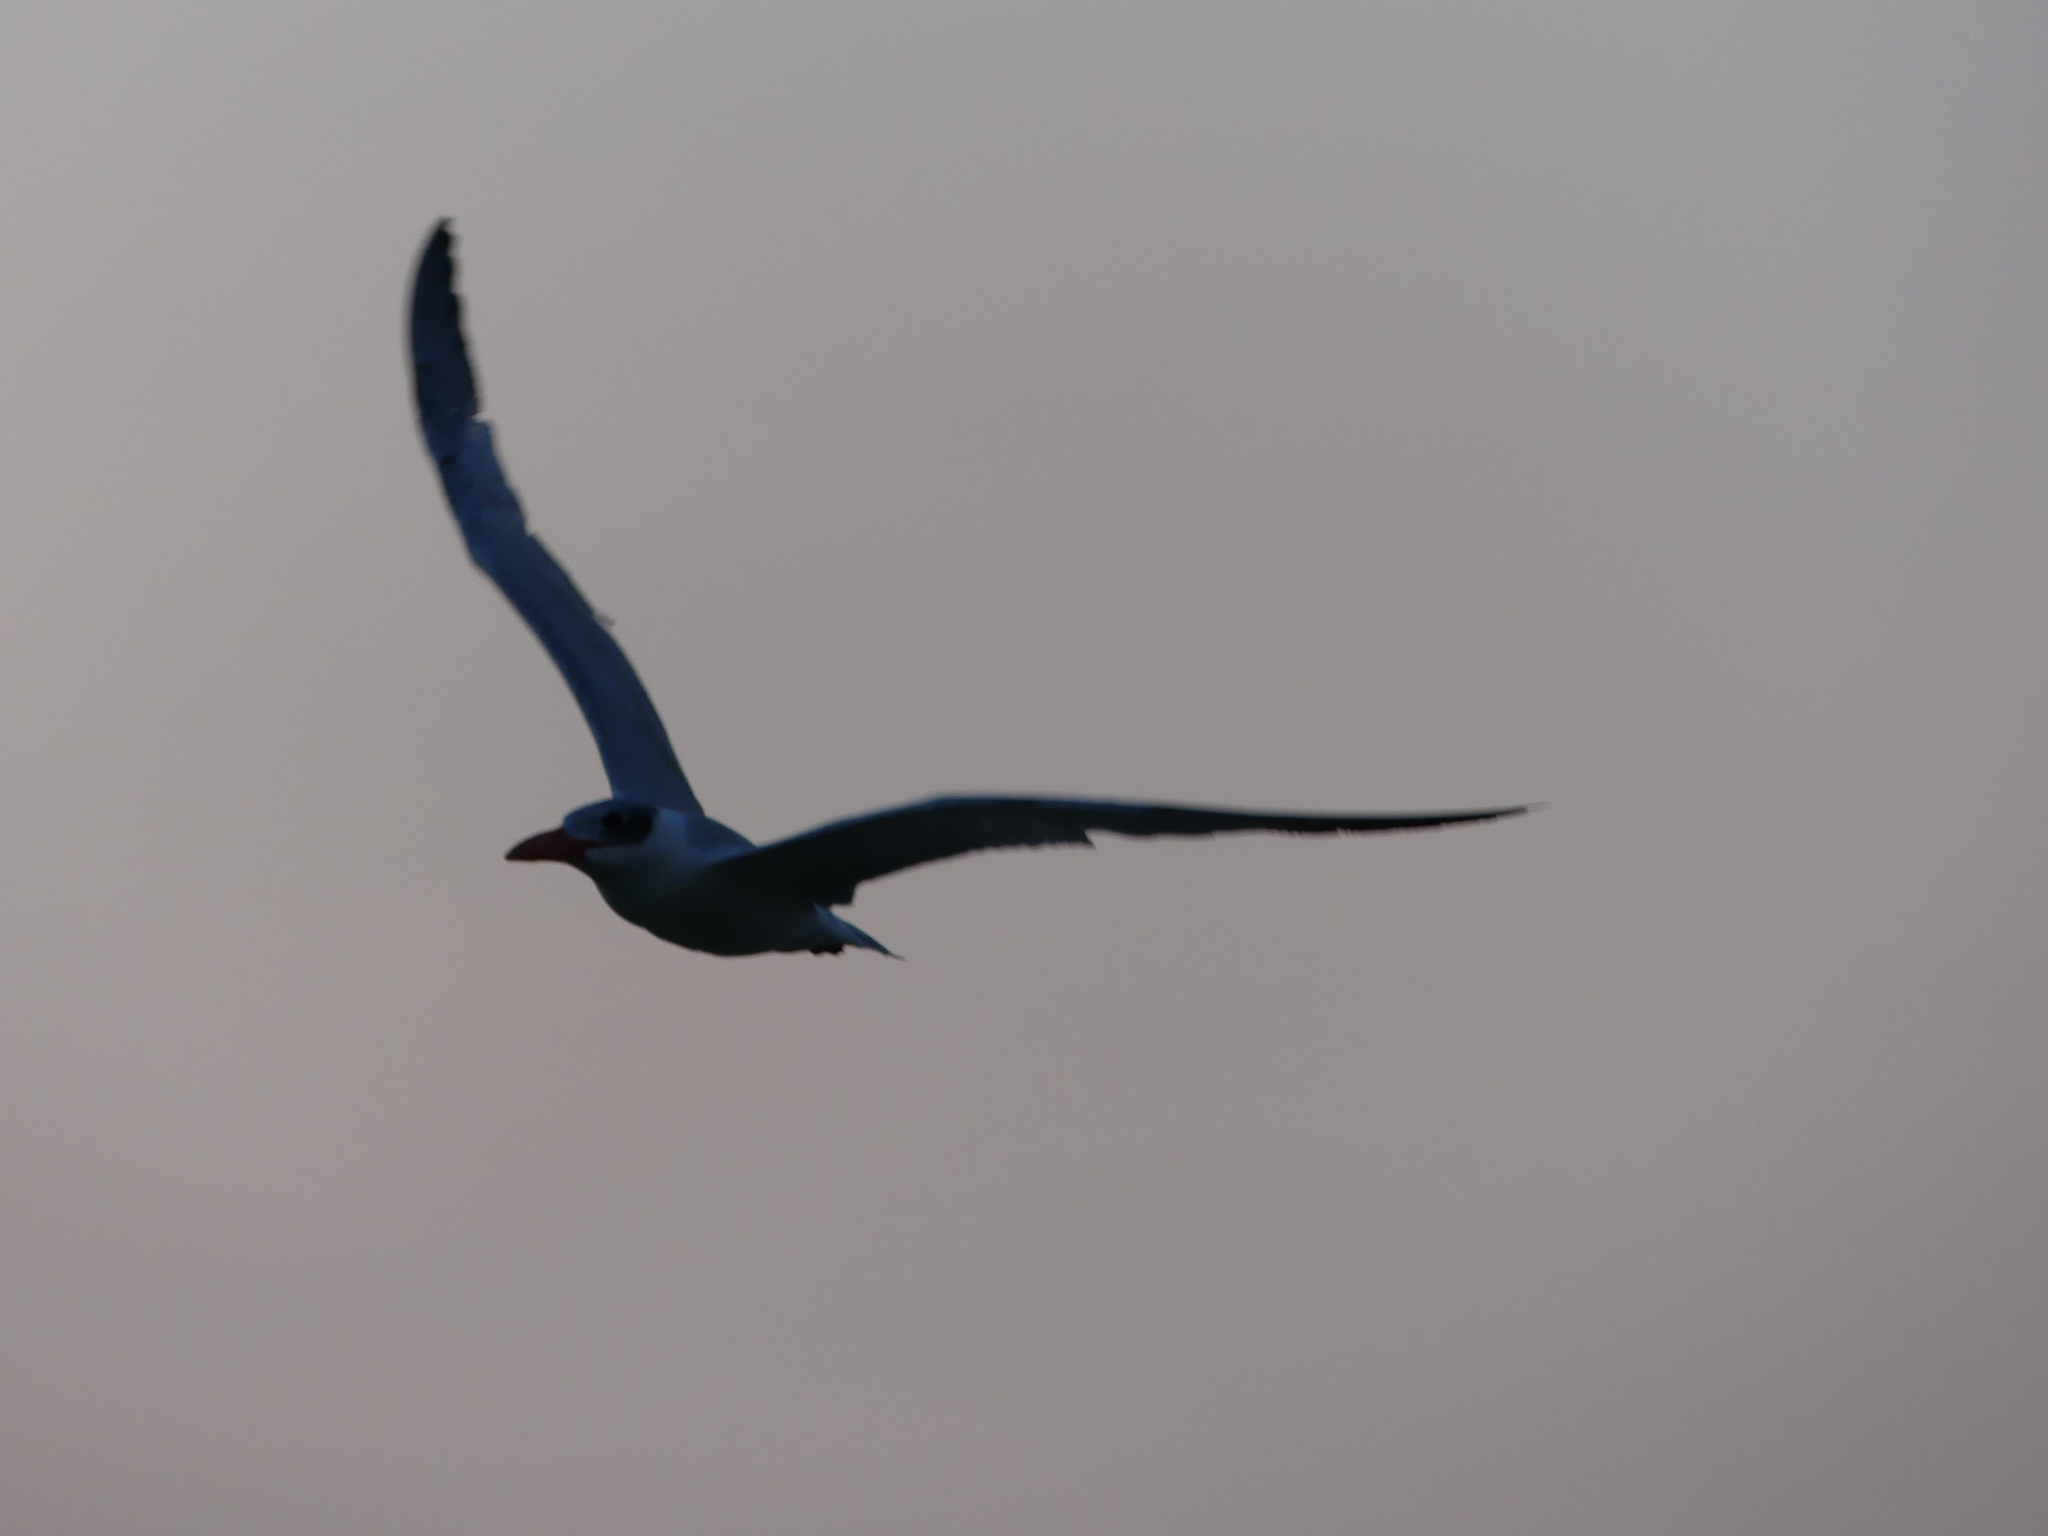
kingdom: Animalia
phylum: Chordata
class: Aves
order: Charadriiformes
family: Laridae
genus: Hydroprogne
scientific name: Hydroprogne caspia
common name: Caspian tern
